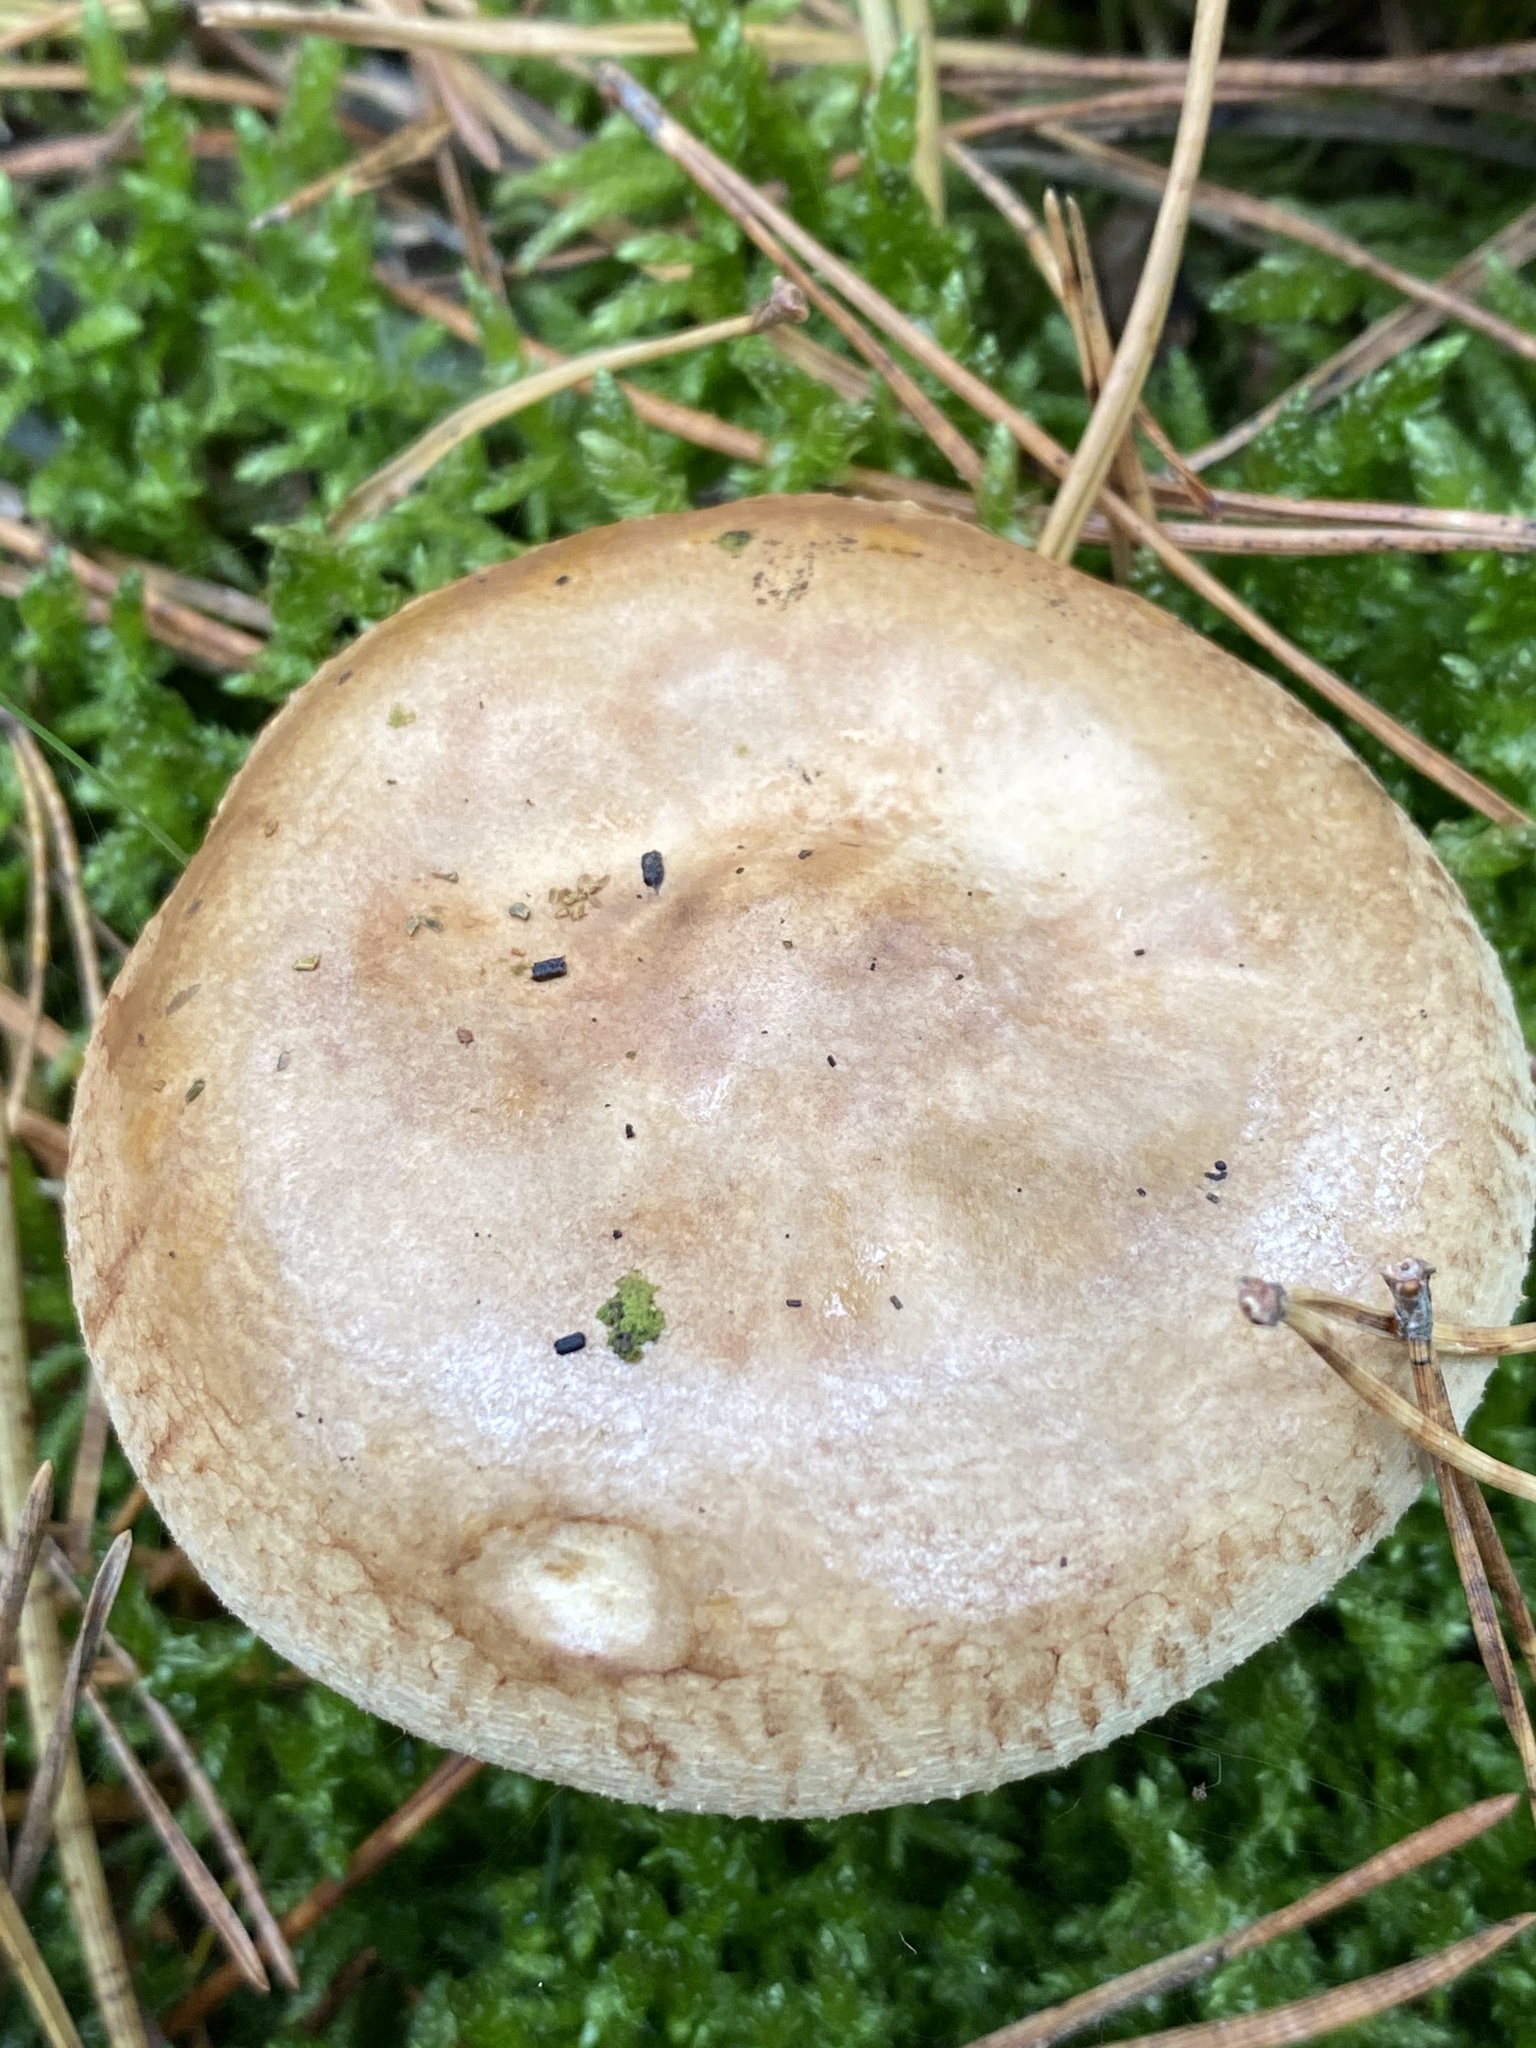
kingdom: Fungi
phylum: Basidiomycota
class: Agaricomycetes
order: Boletales
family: Paxillaceae
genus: Paxillus
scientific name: Paxillus involutus
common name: Brown roll rim
